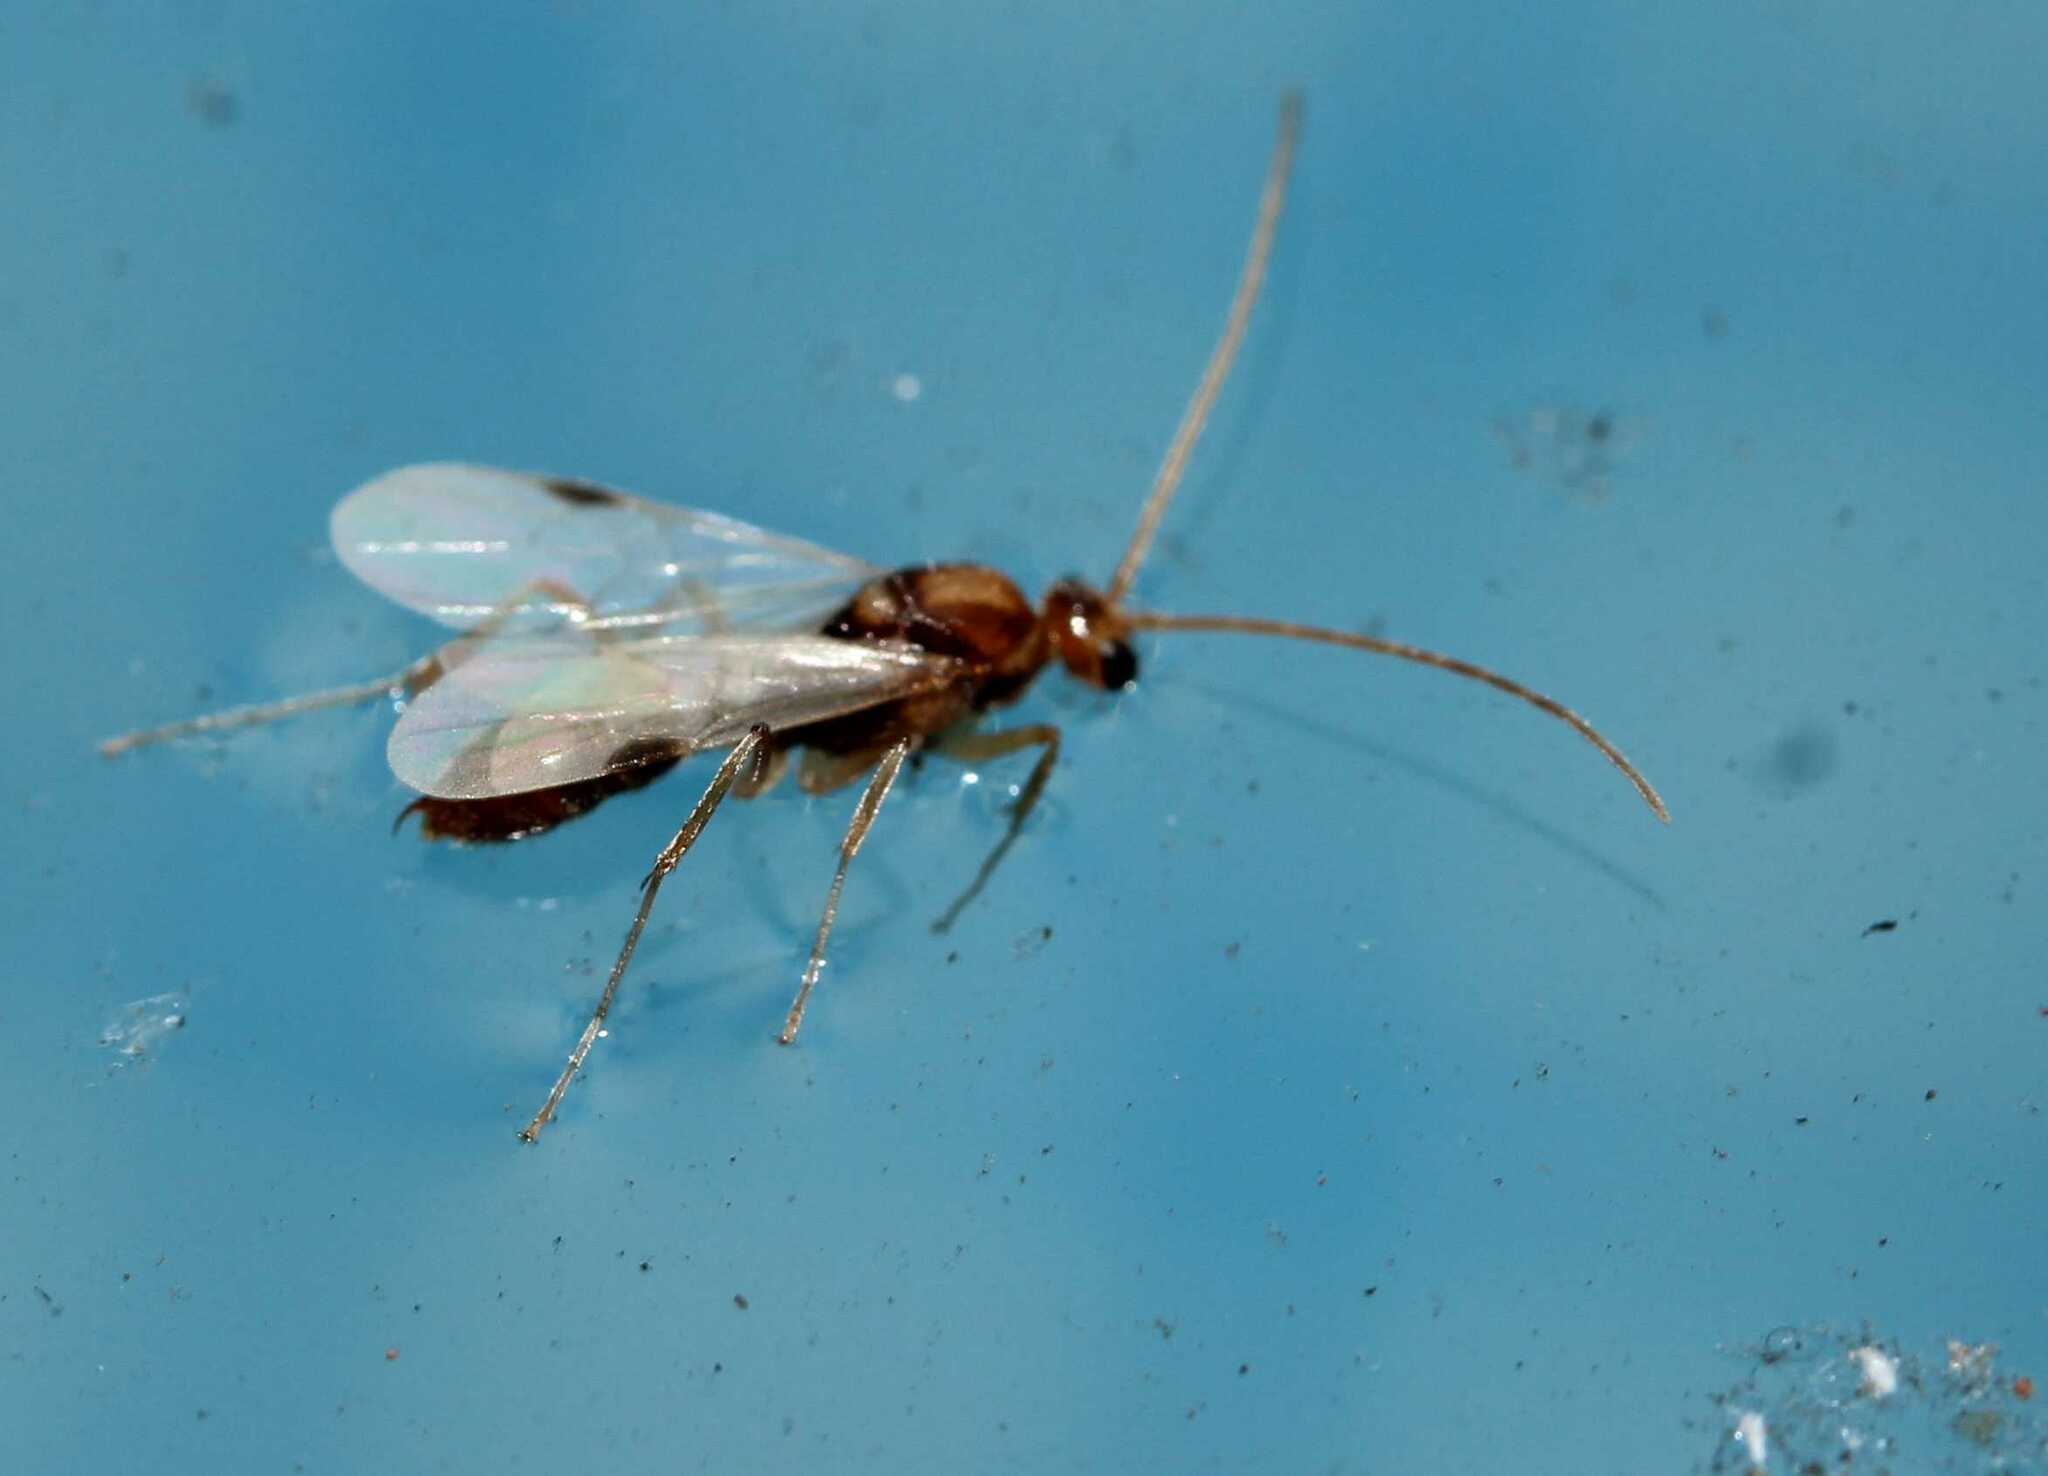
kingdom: Animalia
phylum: Arthropoda
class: Insecta
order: Hymenoptera
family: Formicidae
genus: Odontomachus
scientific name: Odontomachus
